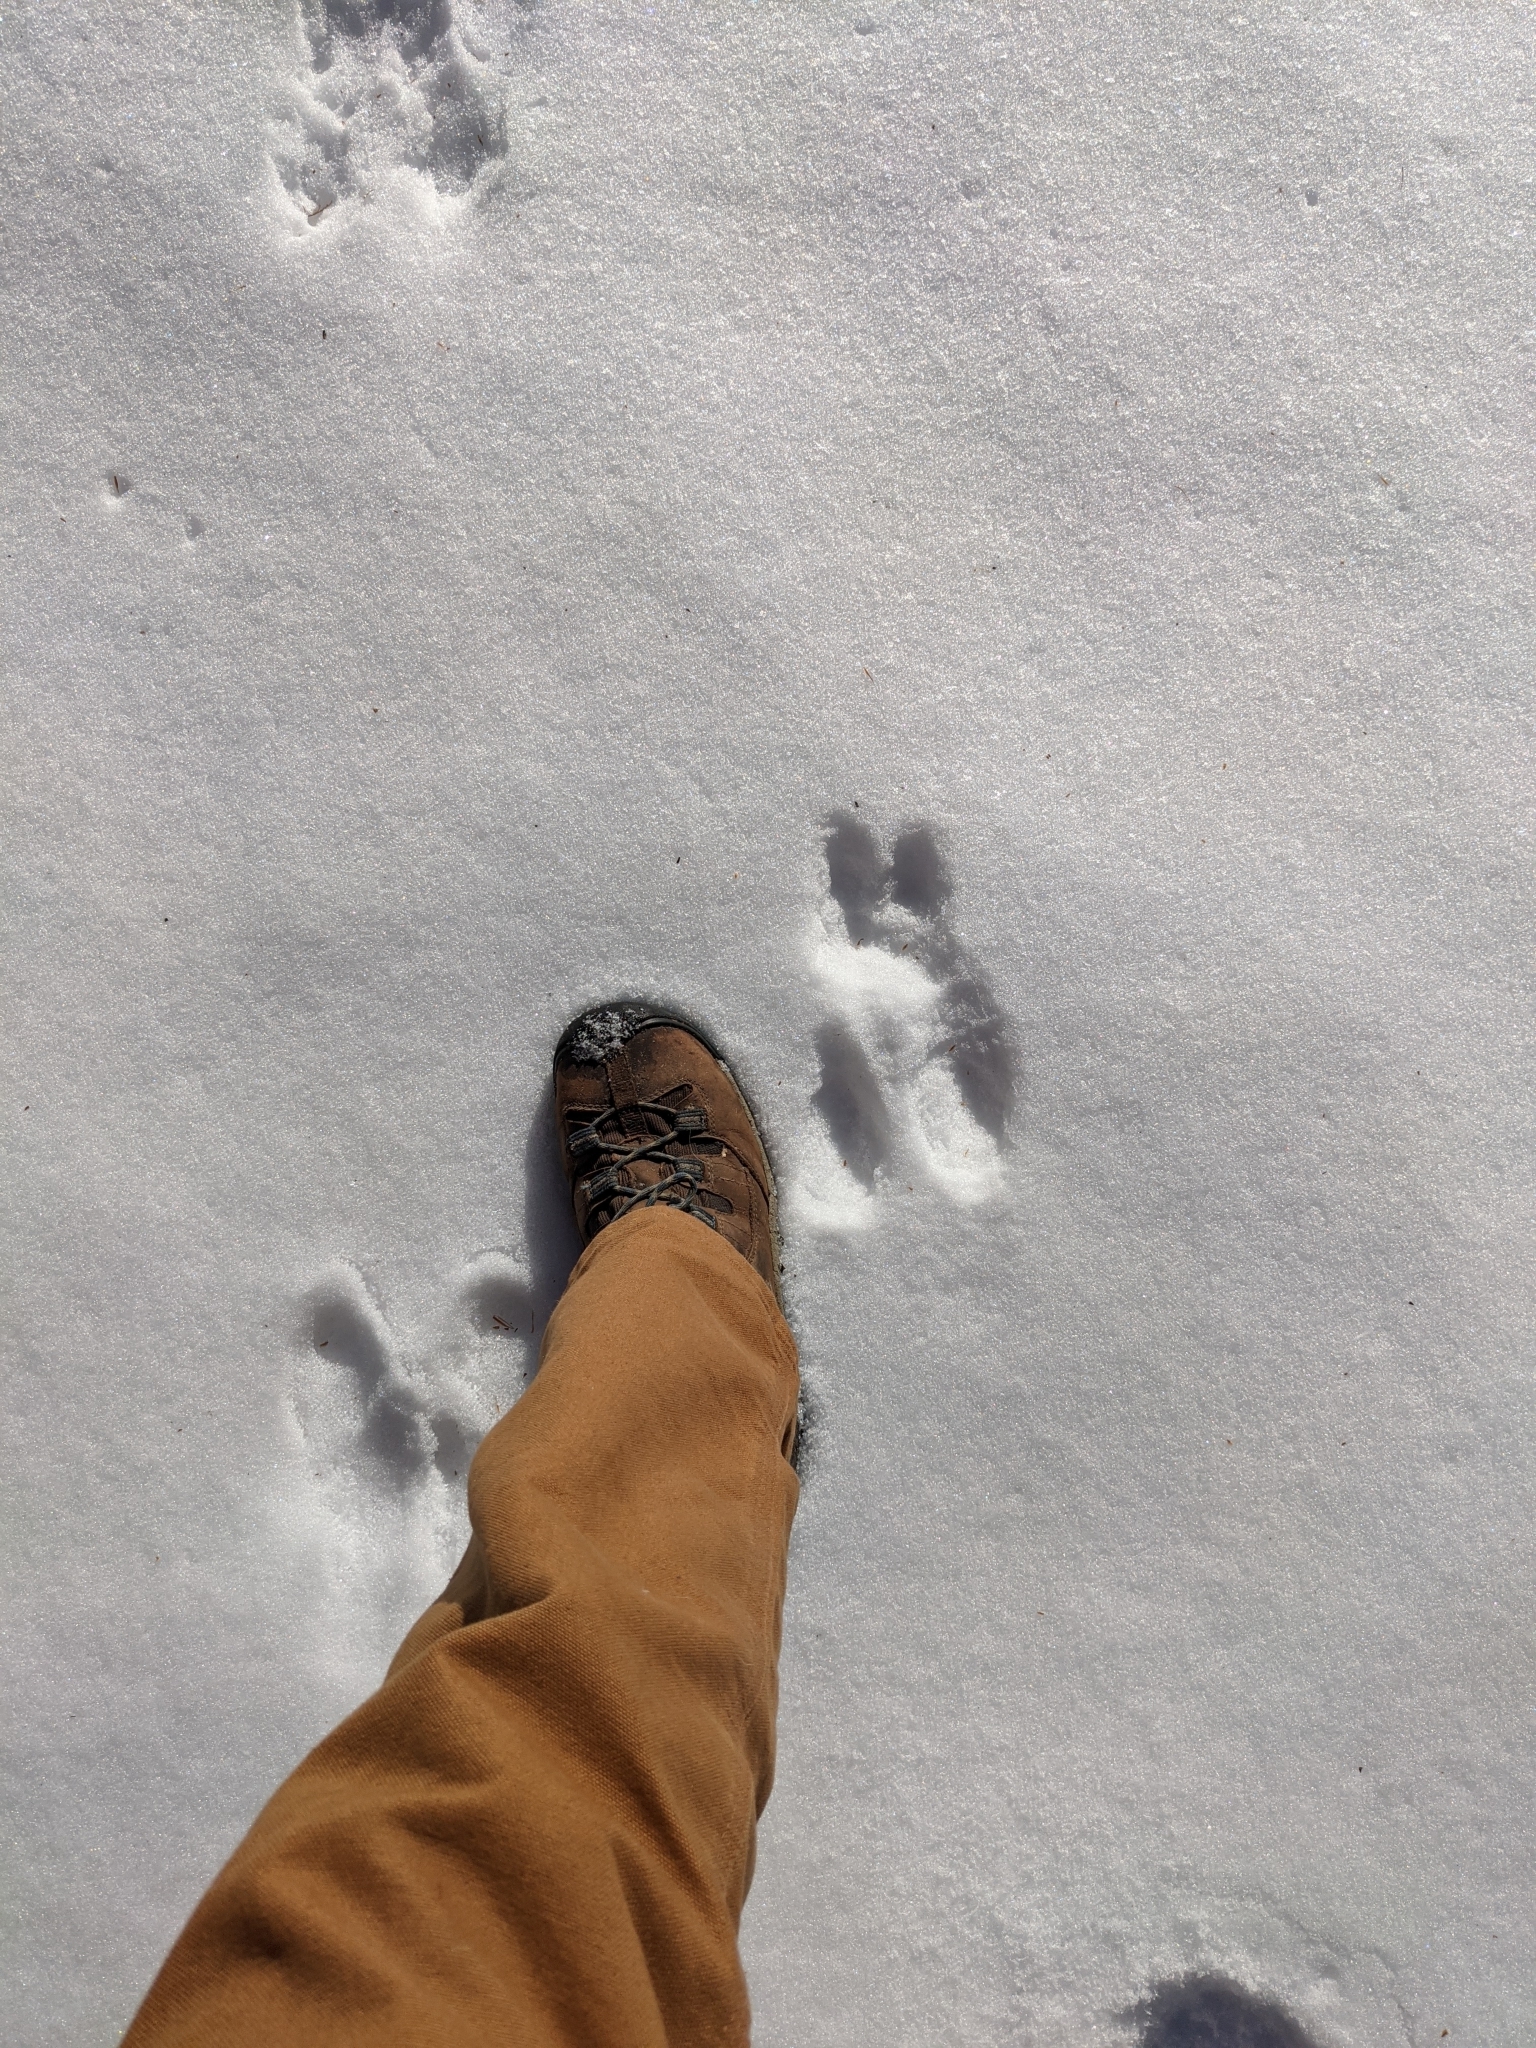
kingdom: Animalia
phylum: Chordata
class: Mammalia
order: Lagomorpha
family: Leporidae
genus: Lepus
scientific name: Lepus americanus
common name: Snowshoe hare
